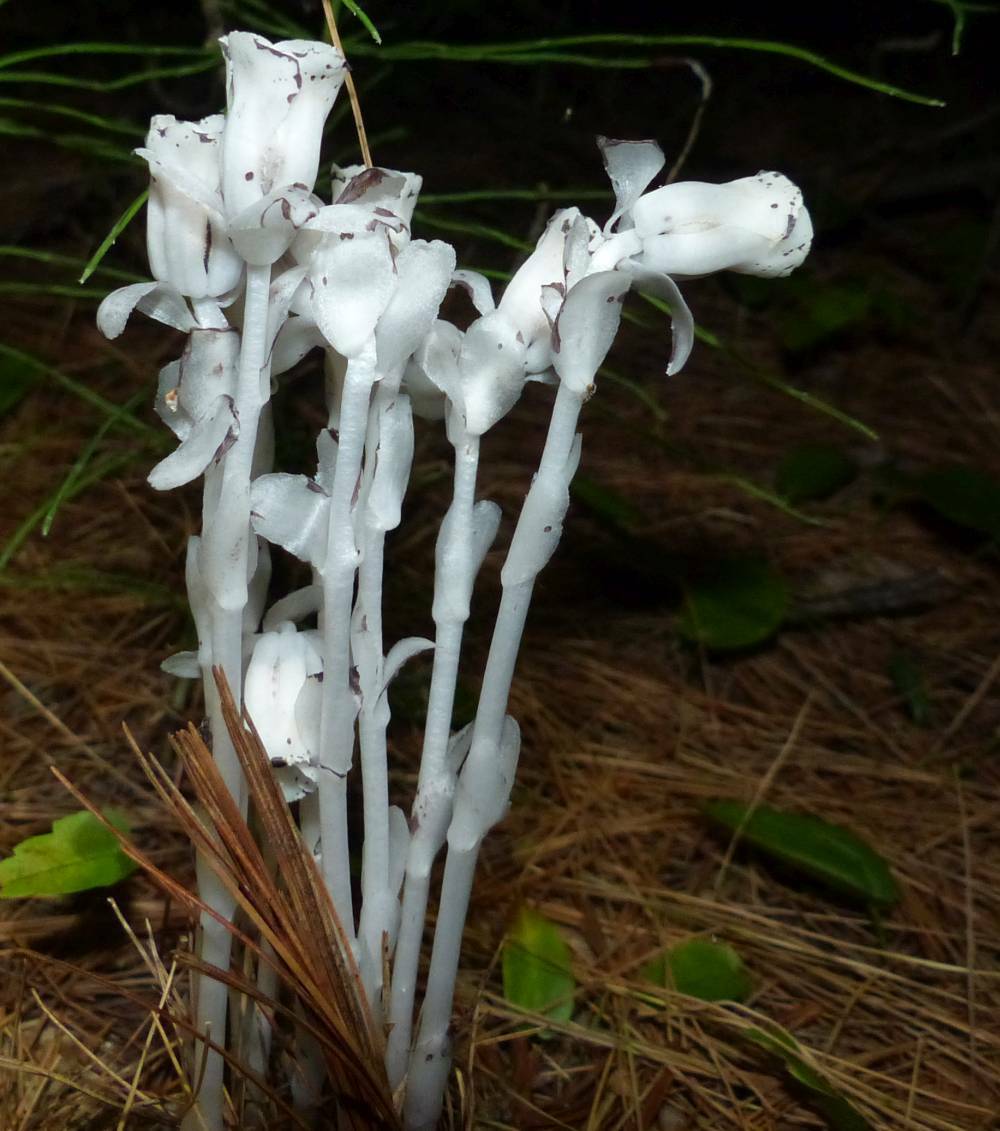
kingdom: Plantae
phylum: Tracheophyta
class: Magnoliopsida
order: Ericales
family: Ericaceae
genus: Monotropa
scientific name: Monotropa uniflora
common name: Convulsion root
